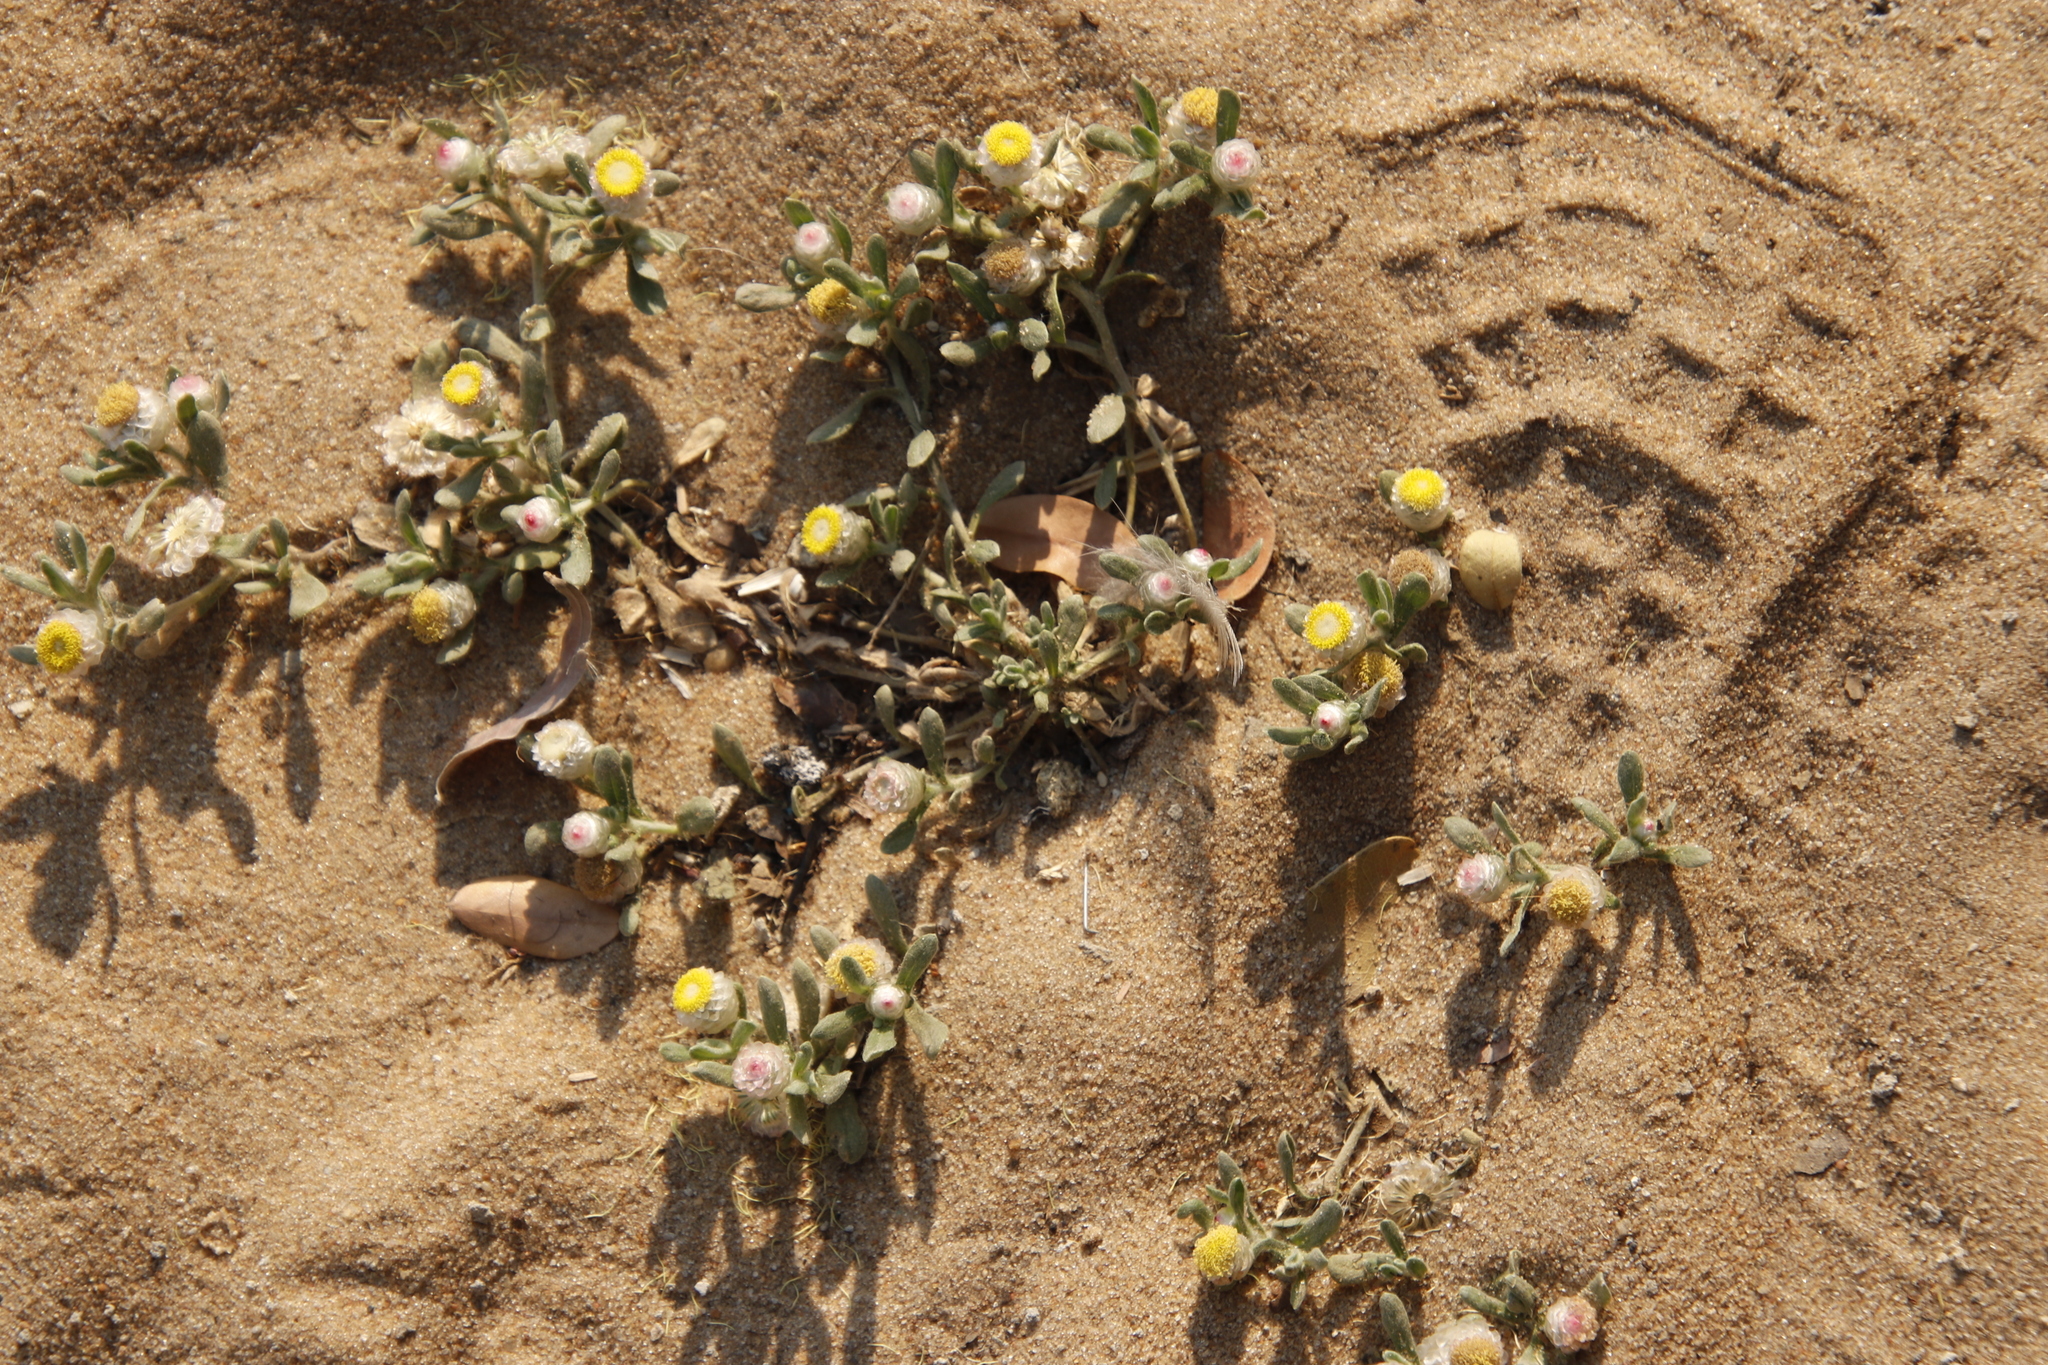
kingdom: Plantae
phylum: Tracheophyta
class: Magnoliopsida
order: Asterales
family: Asteraceae
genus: Helichrysum
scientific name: Helichrysum argyrosphaerum
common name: Wild everlasting
